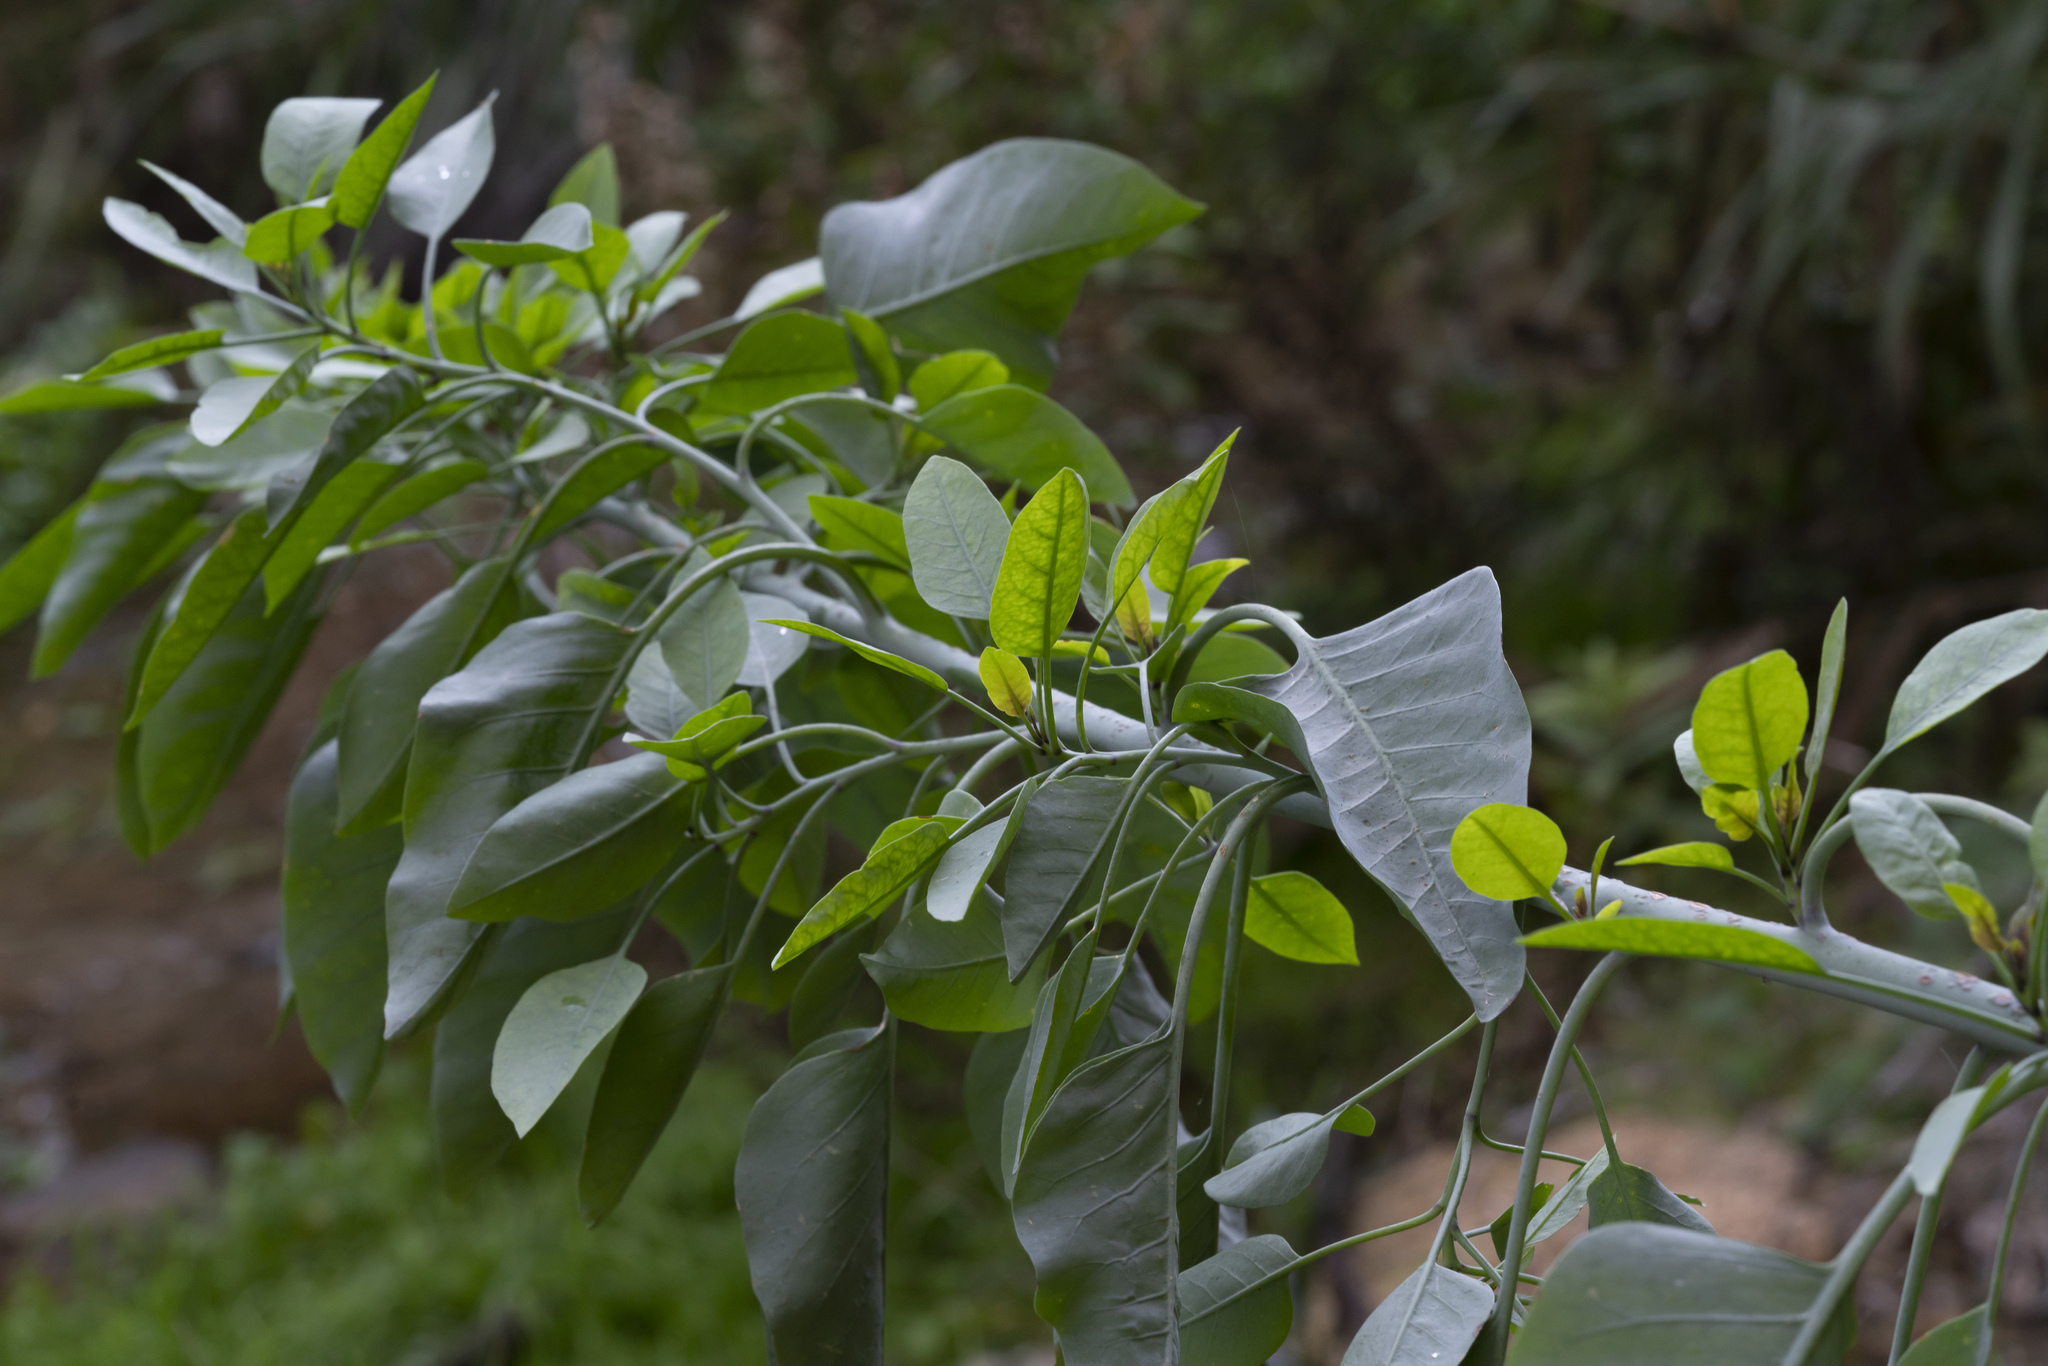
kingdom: Plantae
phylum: Tracheophyta
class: Magnoliopsida
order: Solanales
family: Solanaceae
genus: Nicotiana
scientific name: Nicotiana glauca
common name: Tree tobacco
